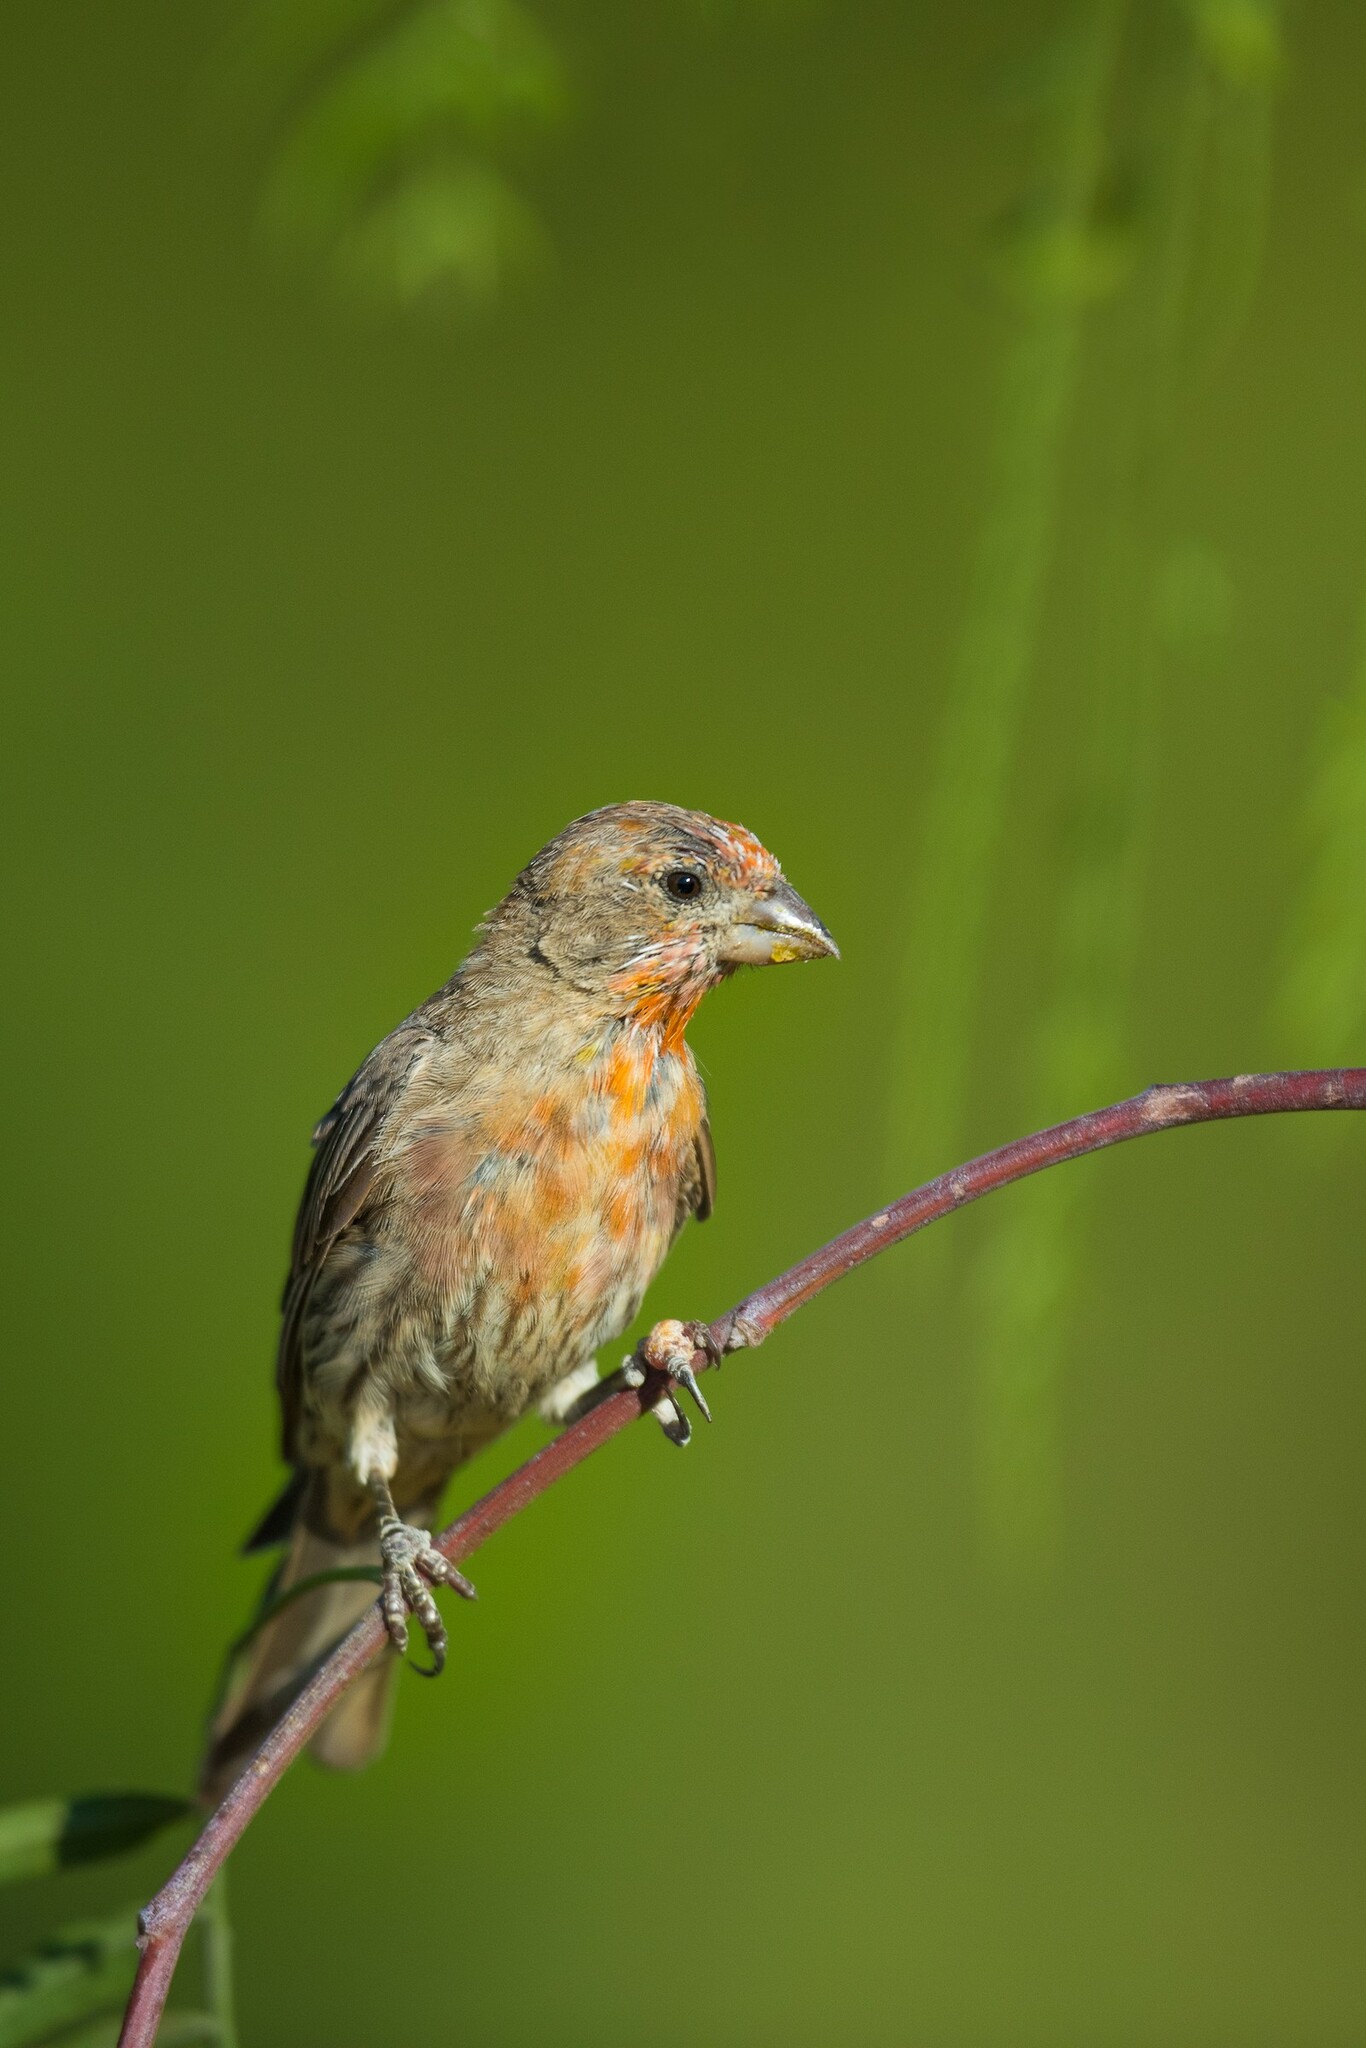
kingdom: Animalia
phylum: Chordata
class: Aves
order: Passeriformes
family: Fringillidae
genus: Haemorhous
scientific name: Haemorhous mexicanus
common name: House finch
